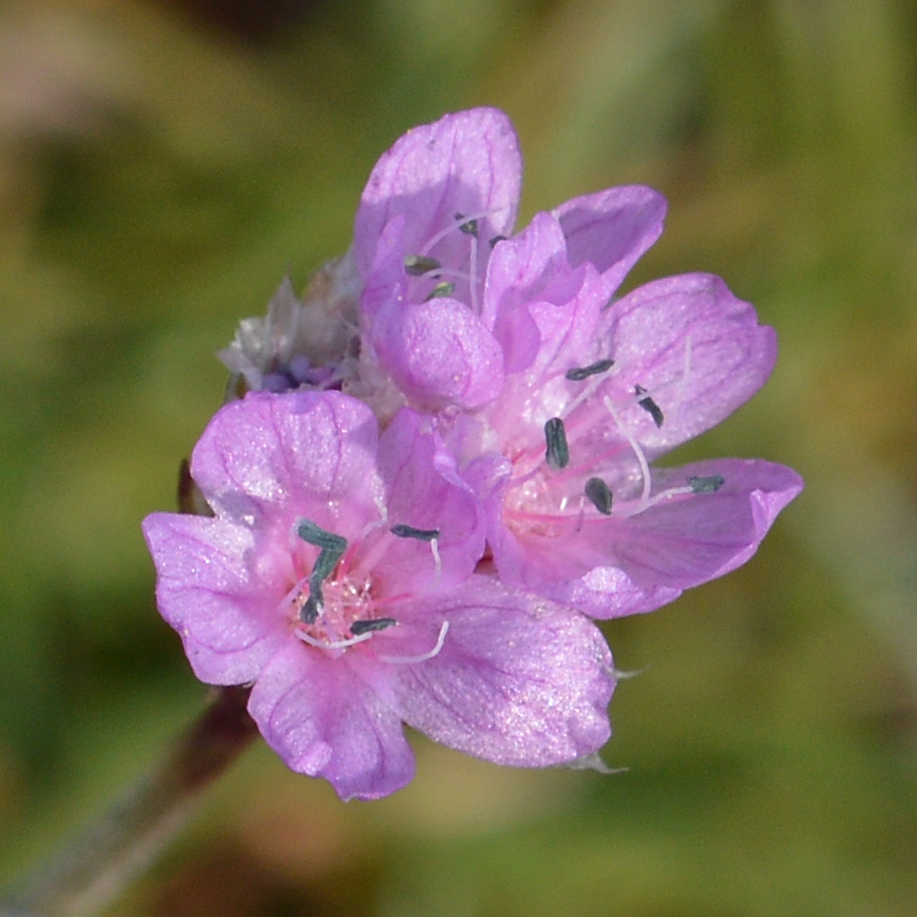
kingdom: Plantae
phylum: Tracheophyta
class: Magnoliopsida
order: Caryophyllales
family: Plumbaginaceae
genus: Armeria
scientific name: Armeria maritima
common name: Thrift
